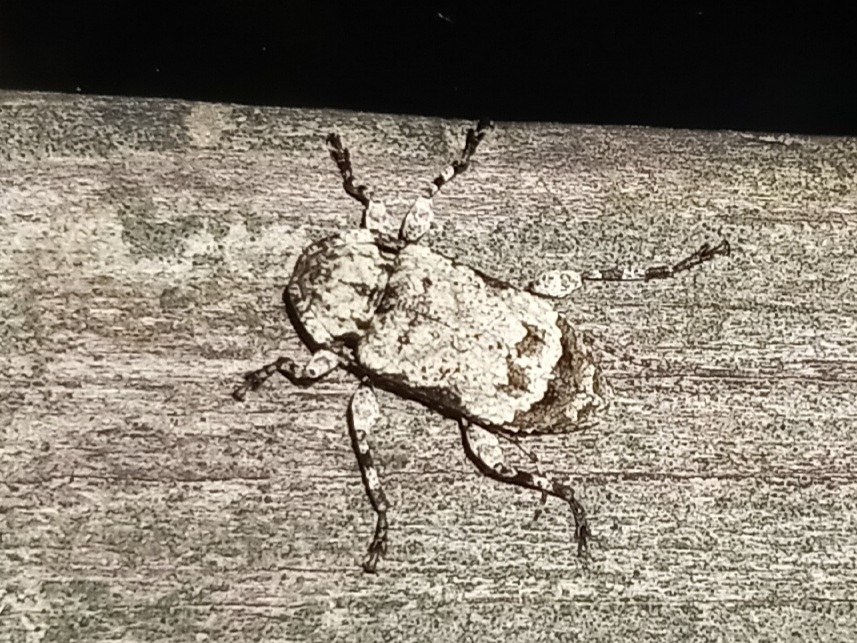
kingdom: Animalia
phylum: Arthropoda
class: Insecta
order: Coleoptera
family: Cerambycidae
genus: Leptostylus
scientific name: Leptostylus asperatus
